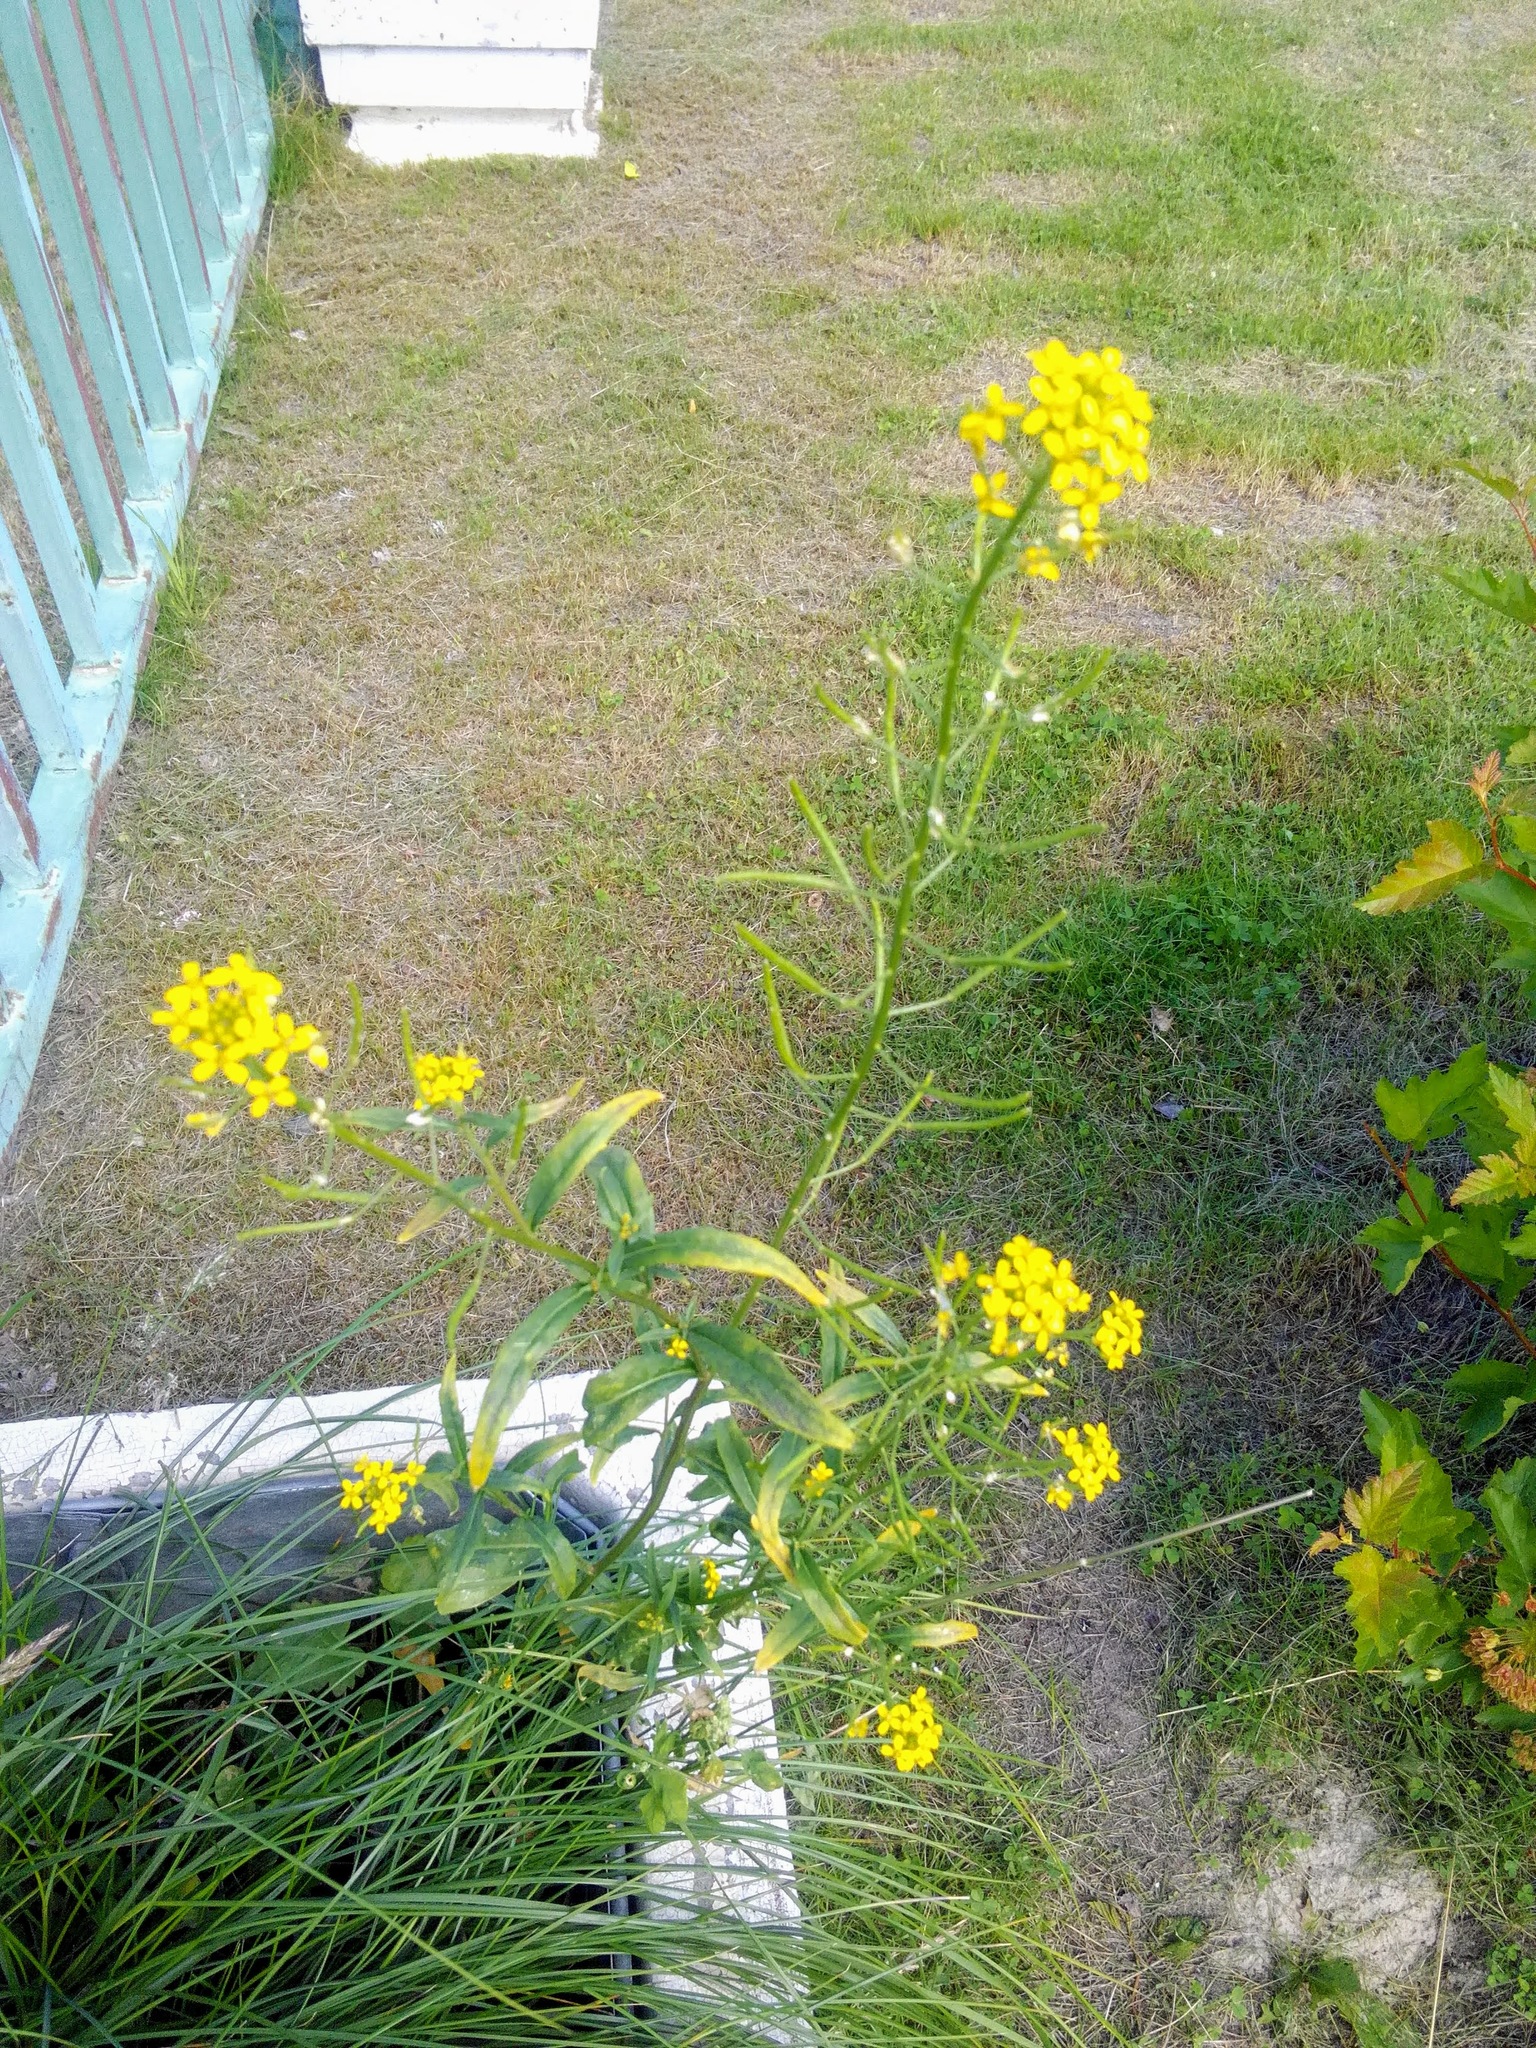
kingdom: Plantae
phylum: Tracheophyta
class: Magnoliopsida
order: Brassicales
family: Brassicaceae
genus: Erysimum
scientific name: Erysimum cheiranthoides
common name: Treacle mustard
